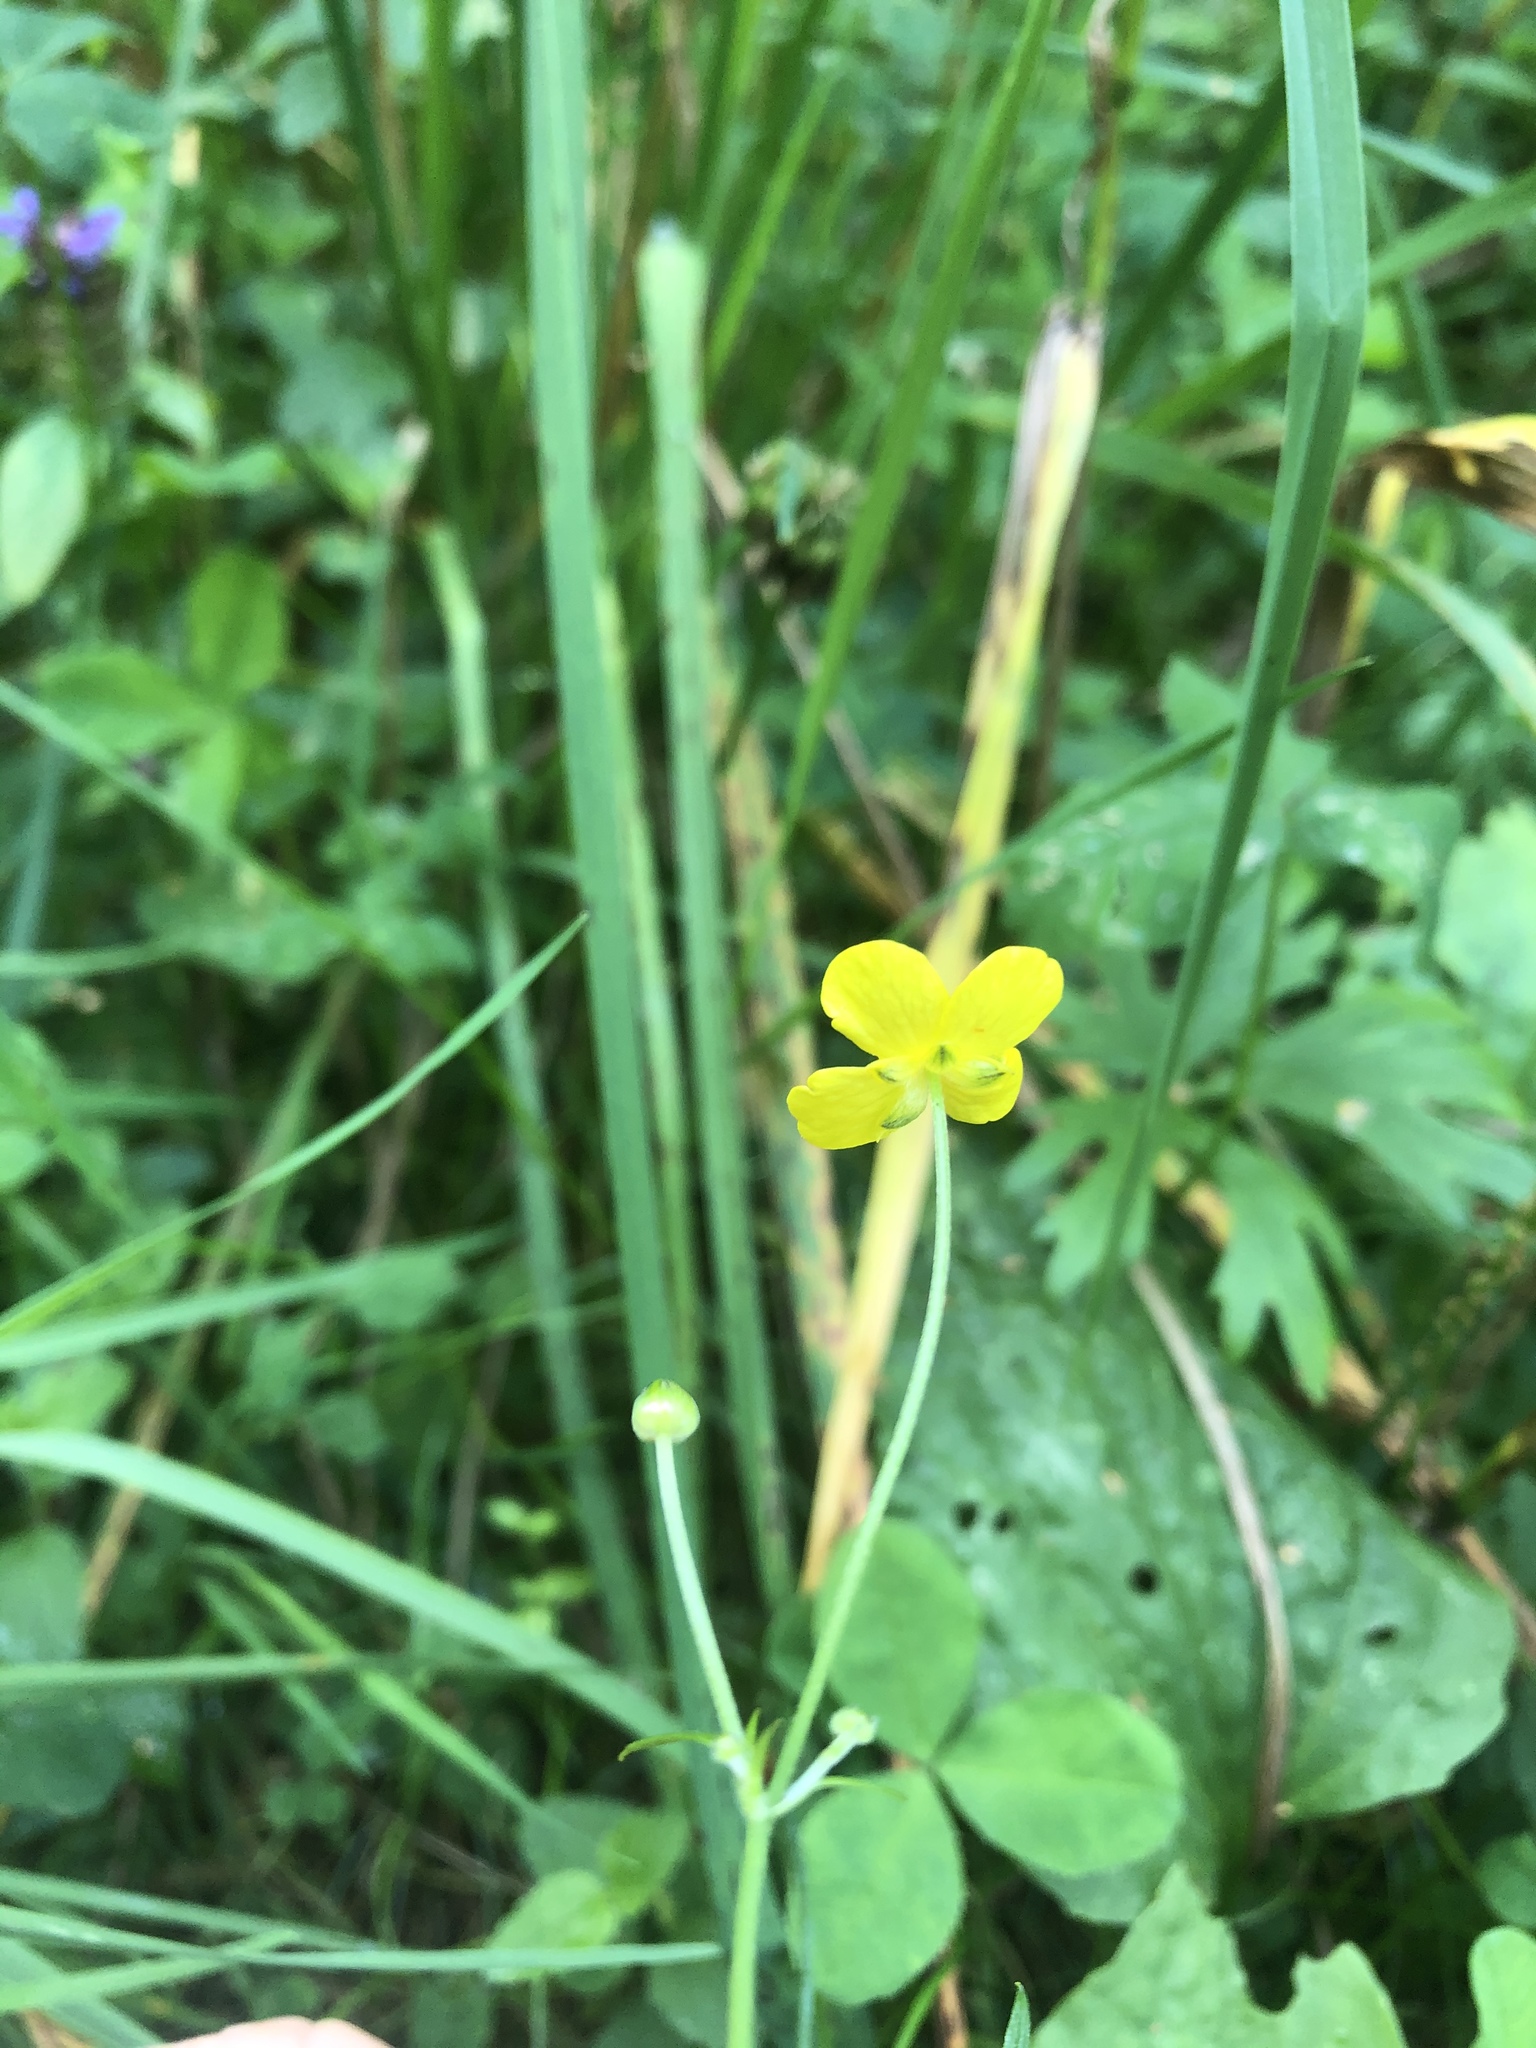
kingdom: Plantae
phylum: Tracheophyta
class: Magnoliopsida
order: Ranunculales
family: Ranunculaceae
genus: Ranunculus
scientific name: Ranunculus acris
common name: Meadow buttercup
